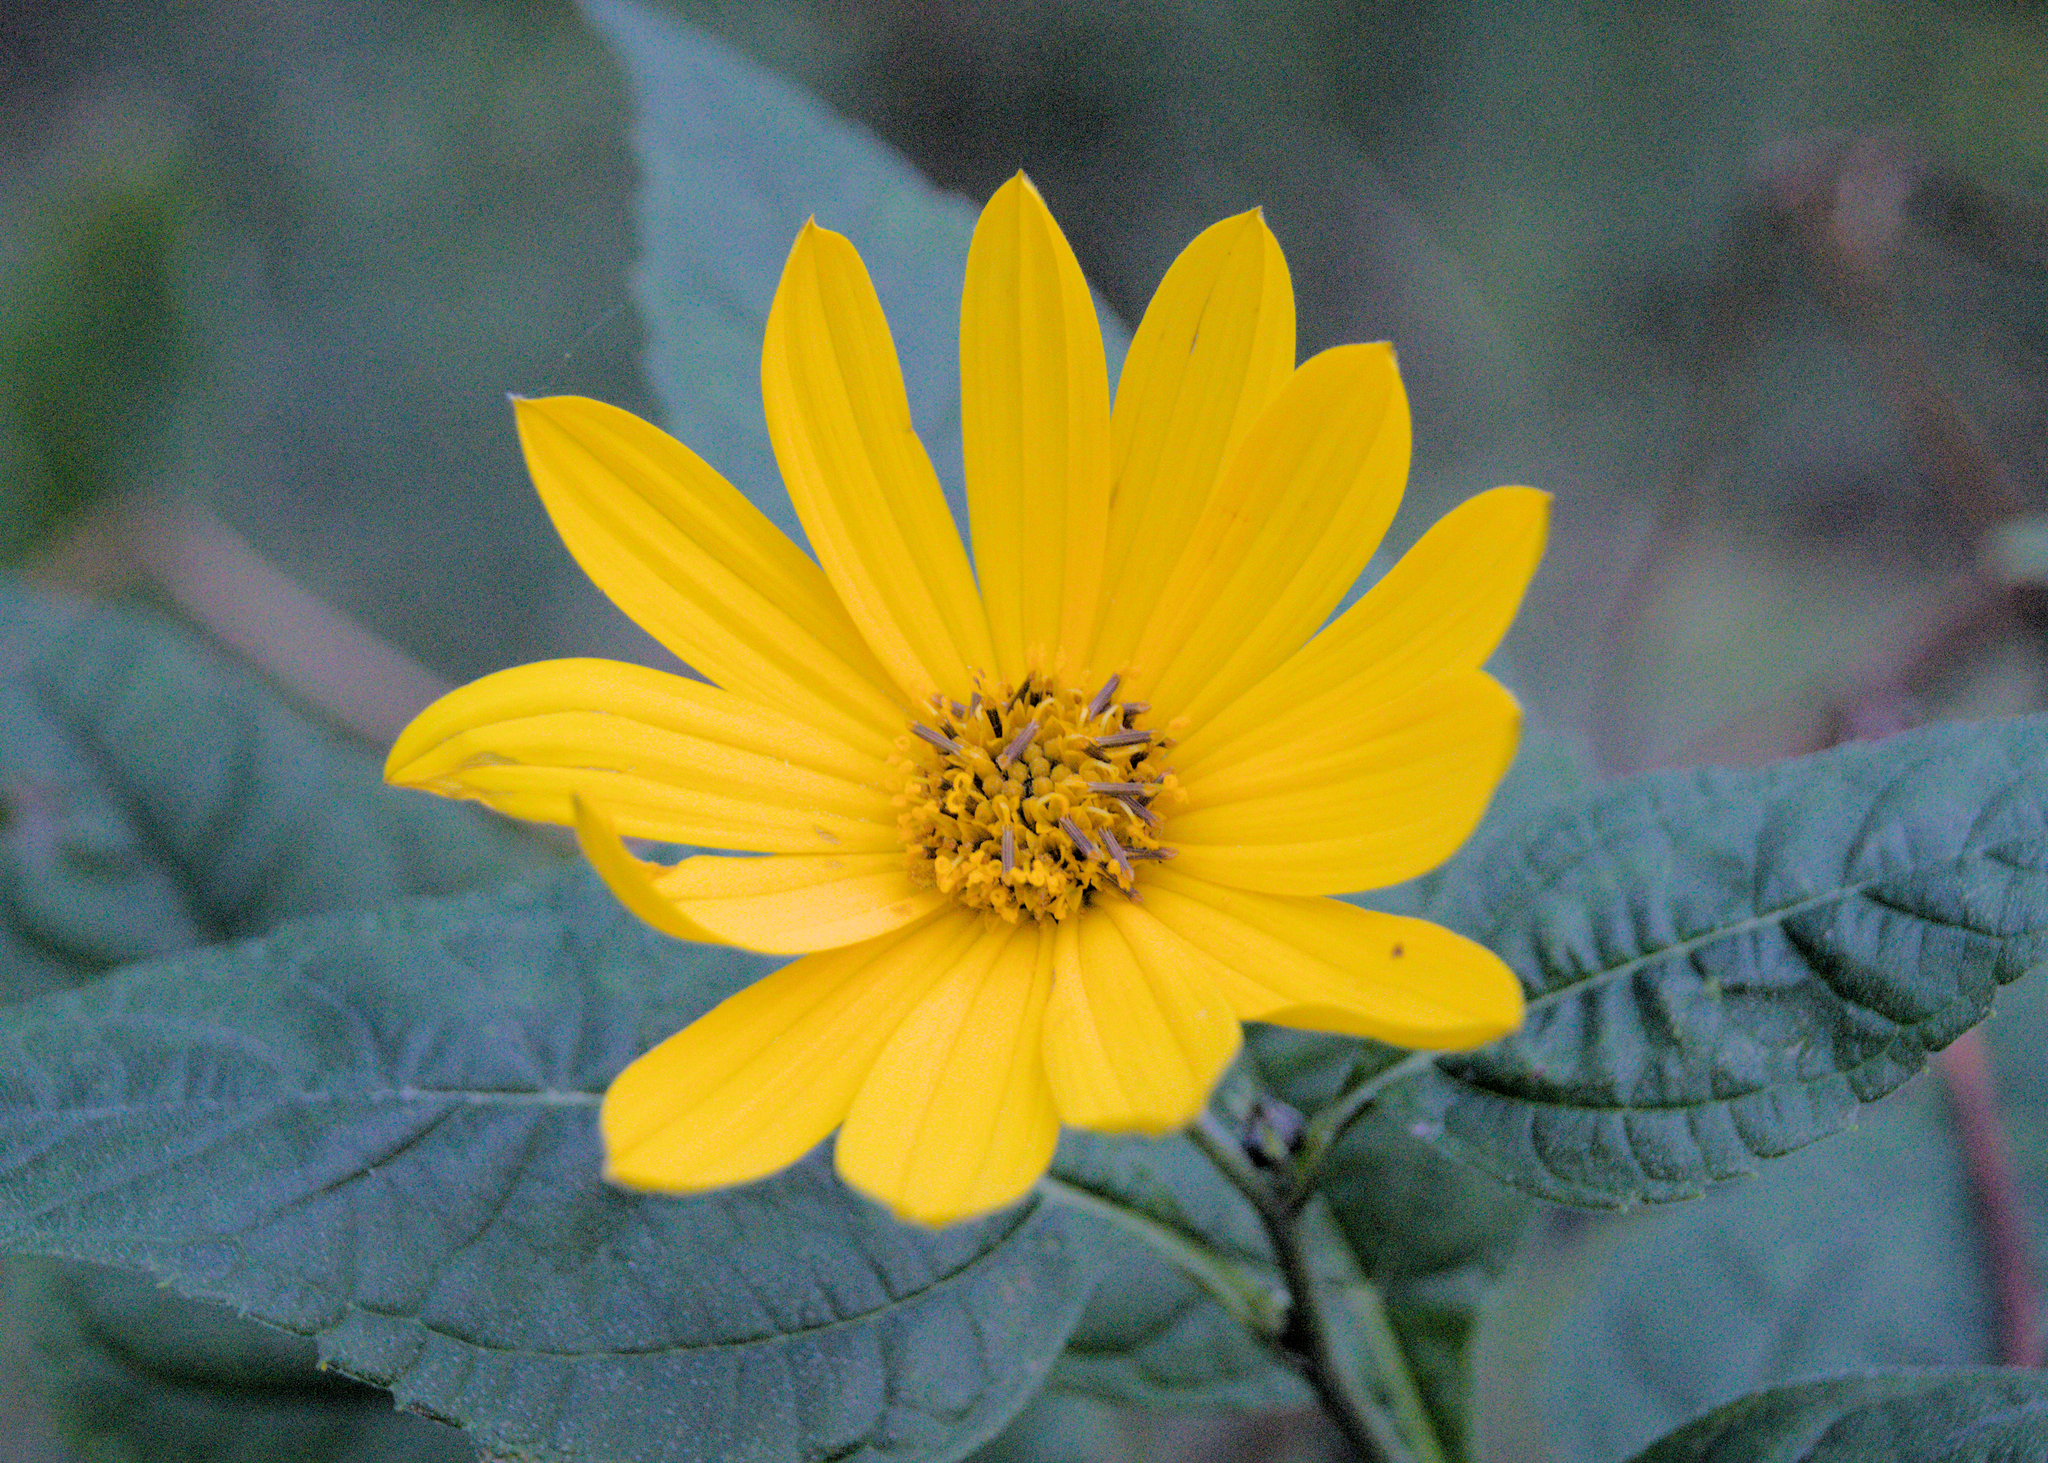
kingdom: Plantae
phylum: Tracheophyta
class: Magnoliopsida
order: Asterales
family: Asteraceae
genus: Helianthus
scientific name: Helianthus tuberosus
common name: Jerusalem artichoke
